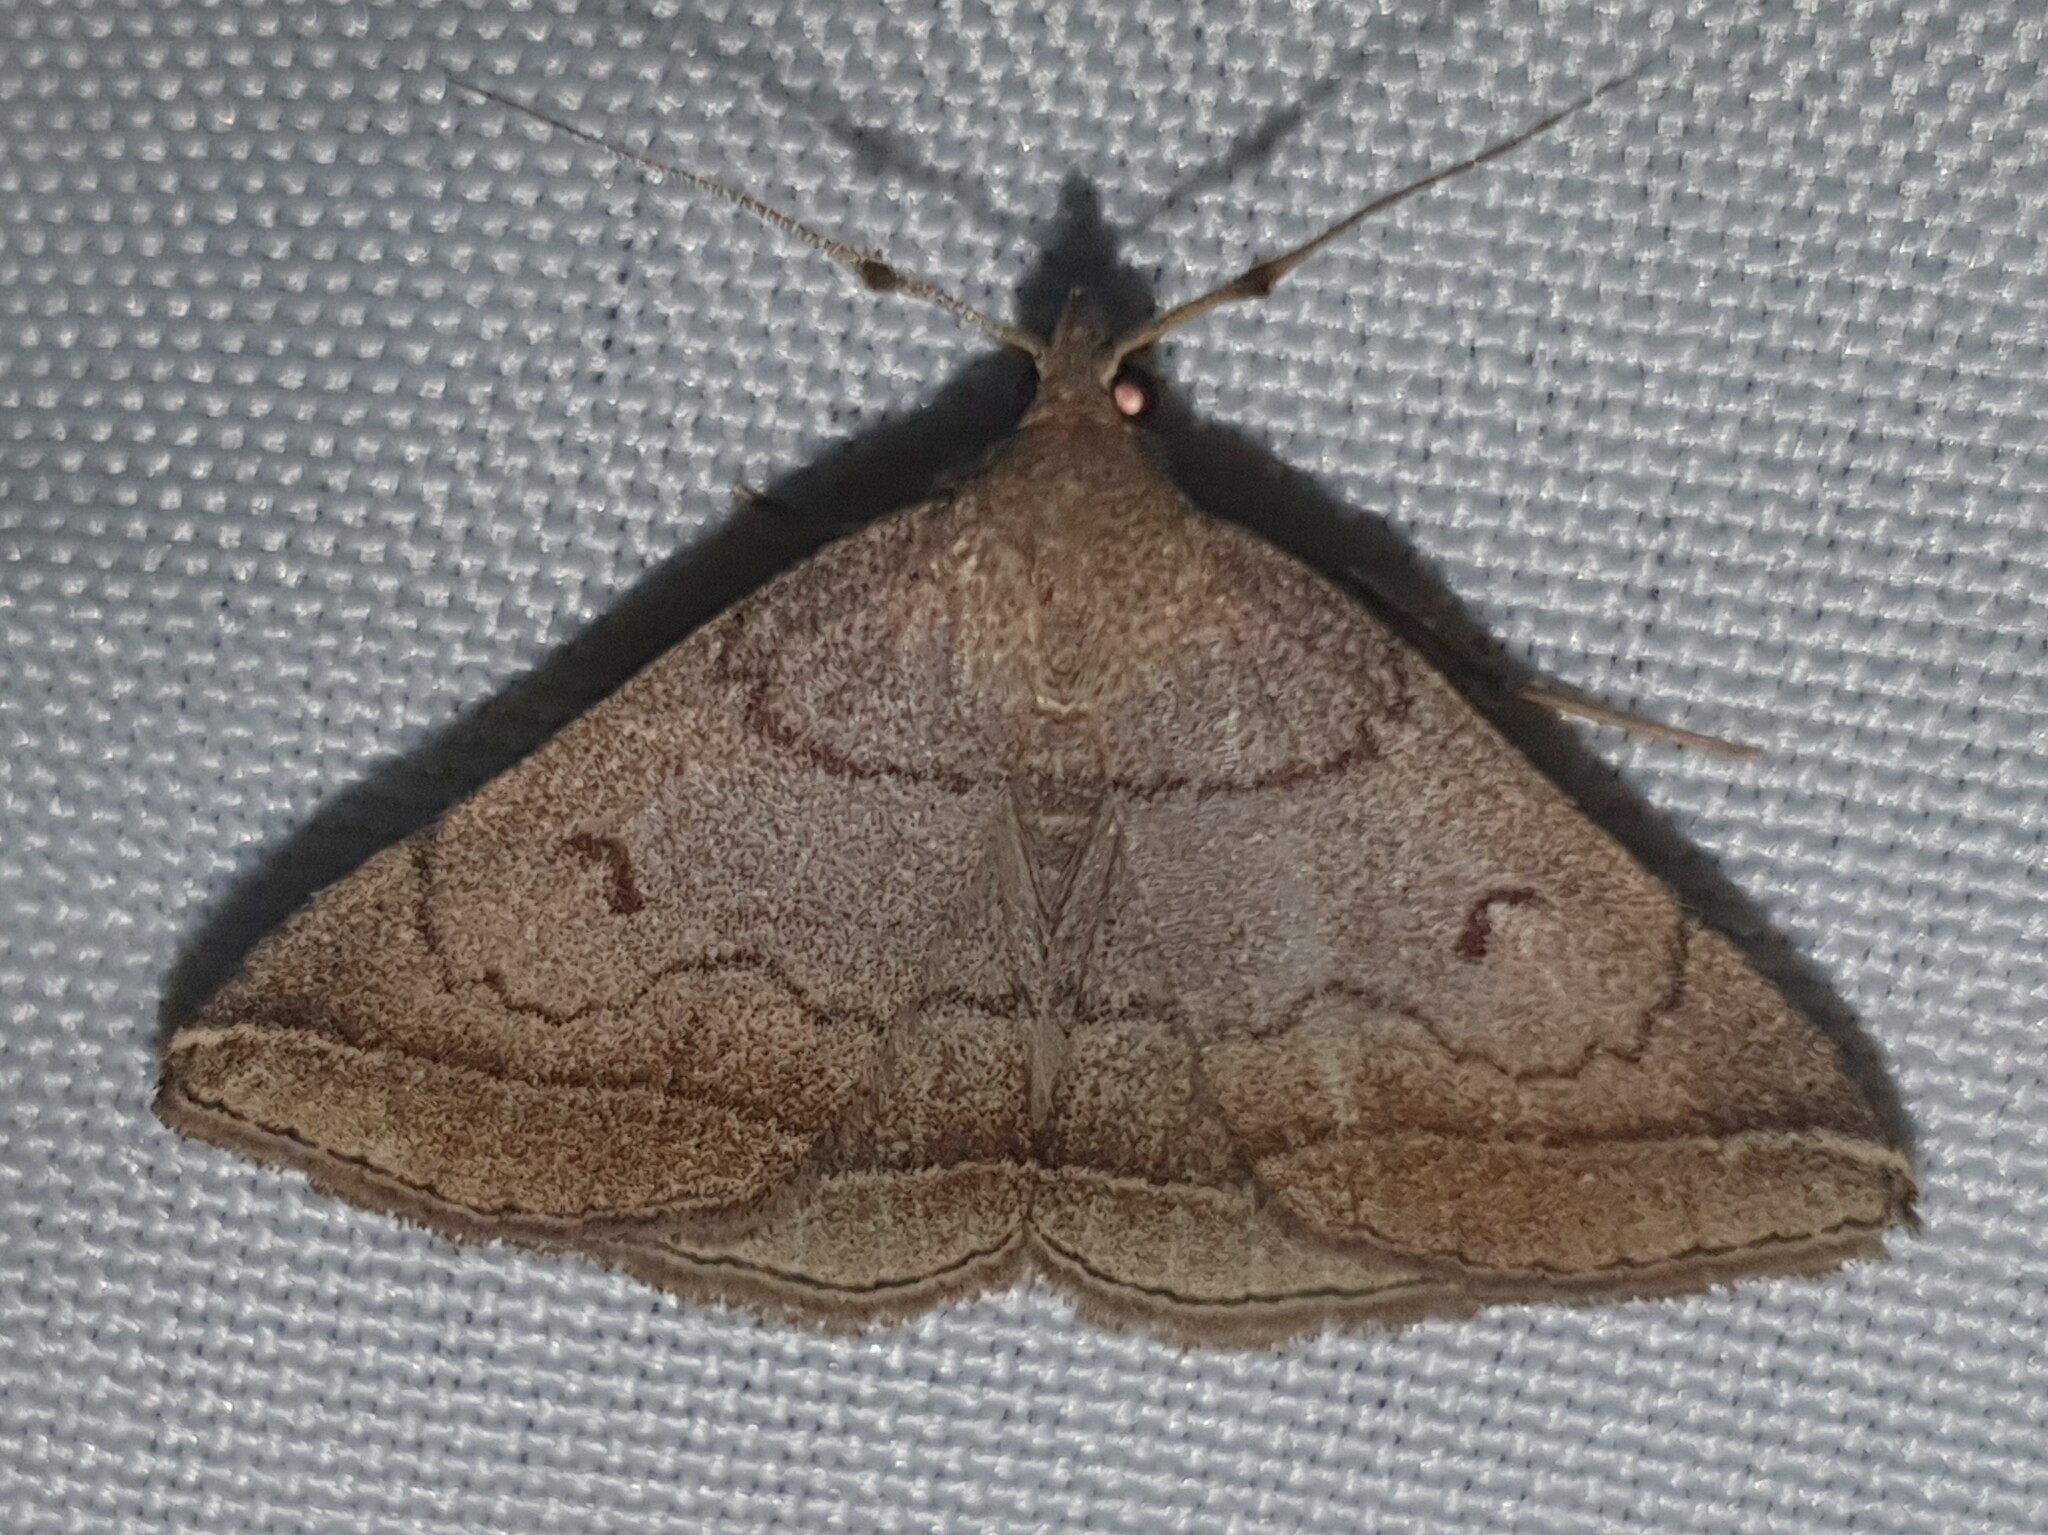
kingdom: Animalia
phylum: Arthropoda
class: Insecta
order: Lepidoptera
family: Erebidae
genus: Zanclognatha
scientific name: Zanclognatha lunalis
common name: Jubilee fan-foot
